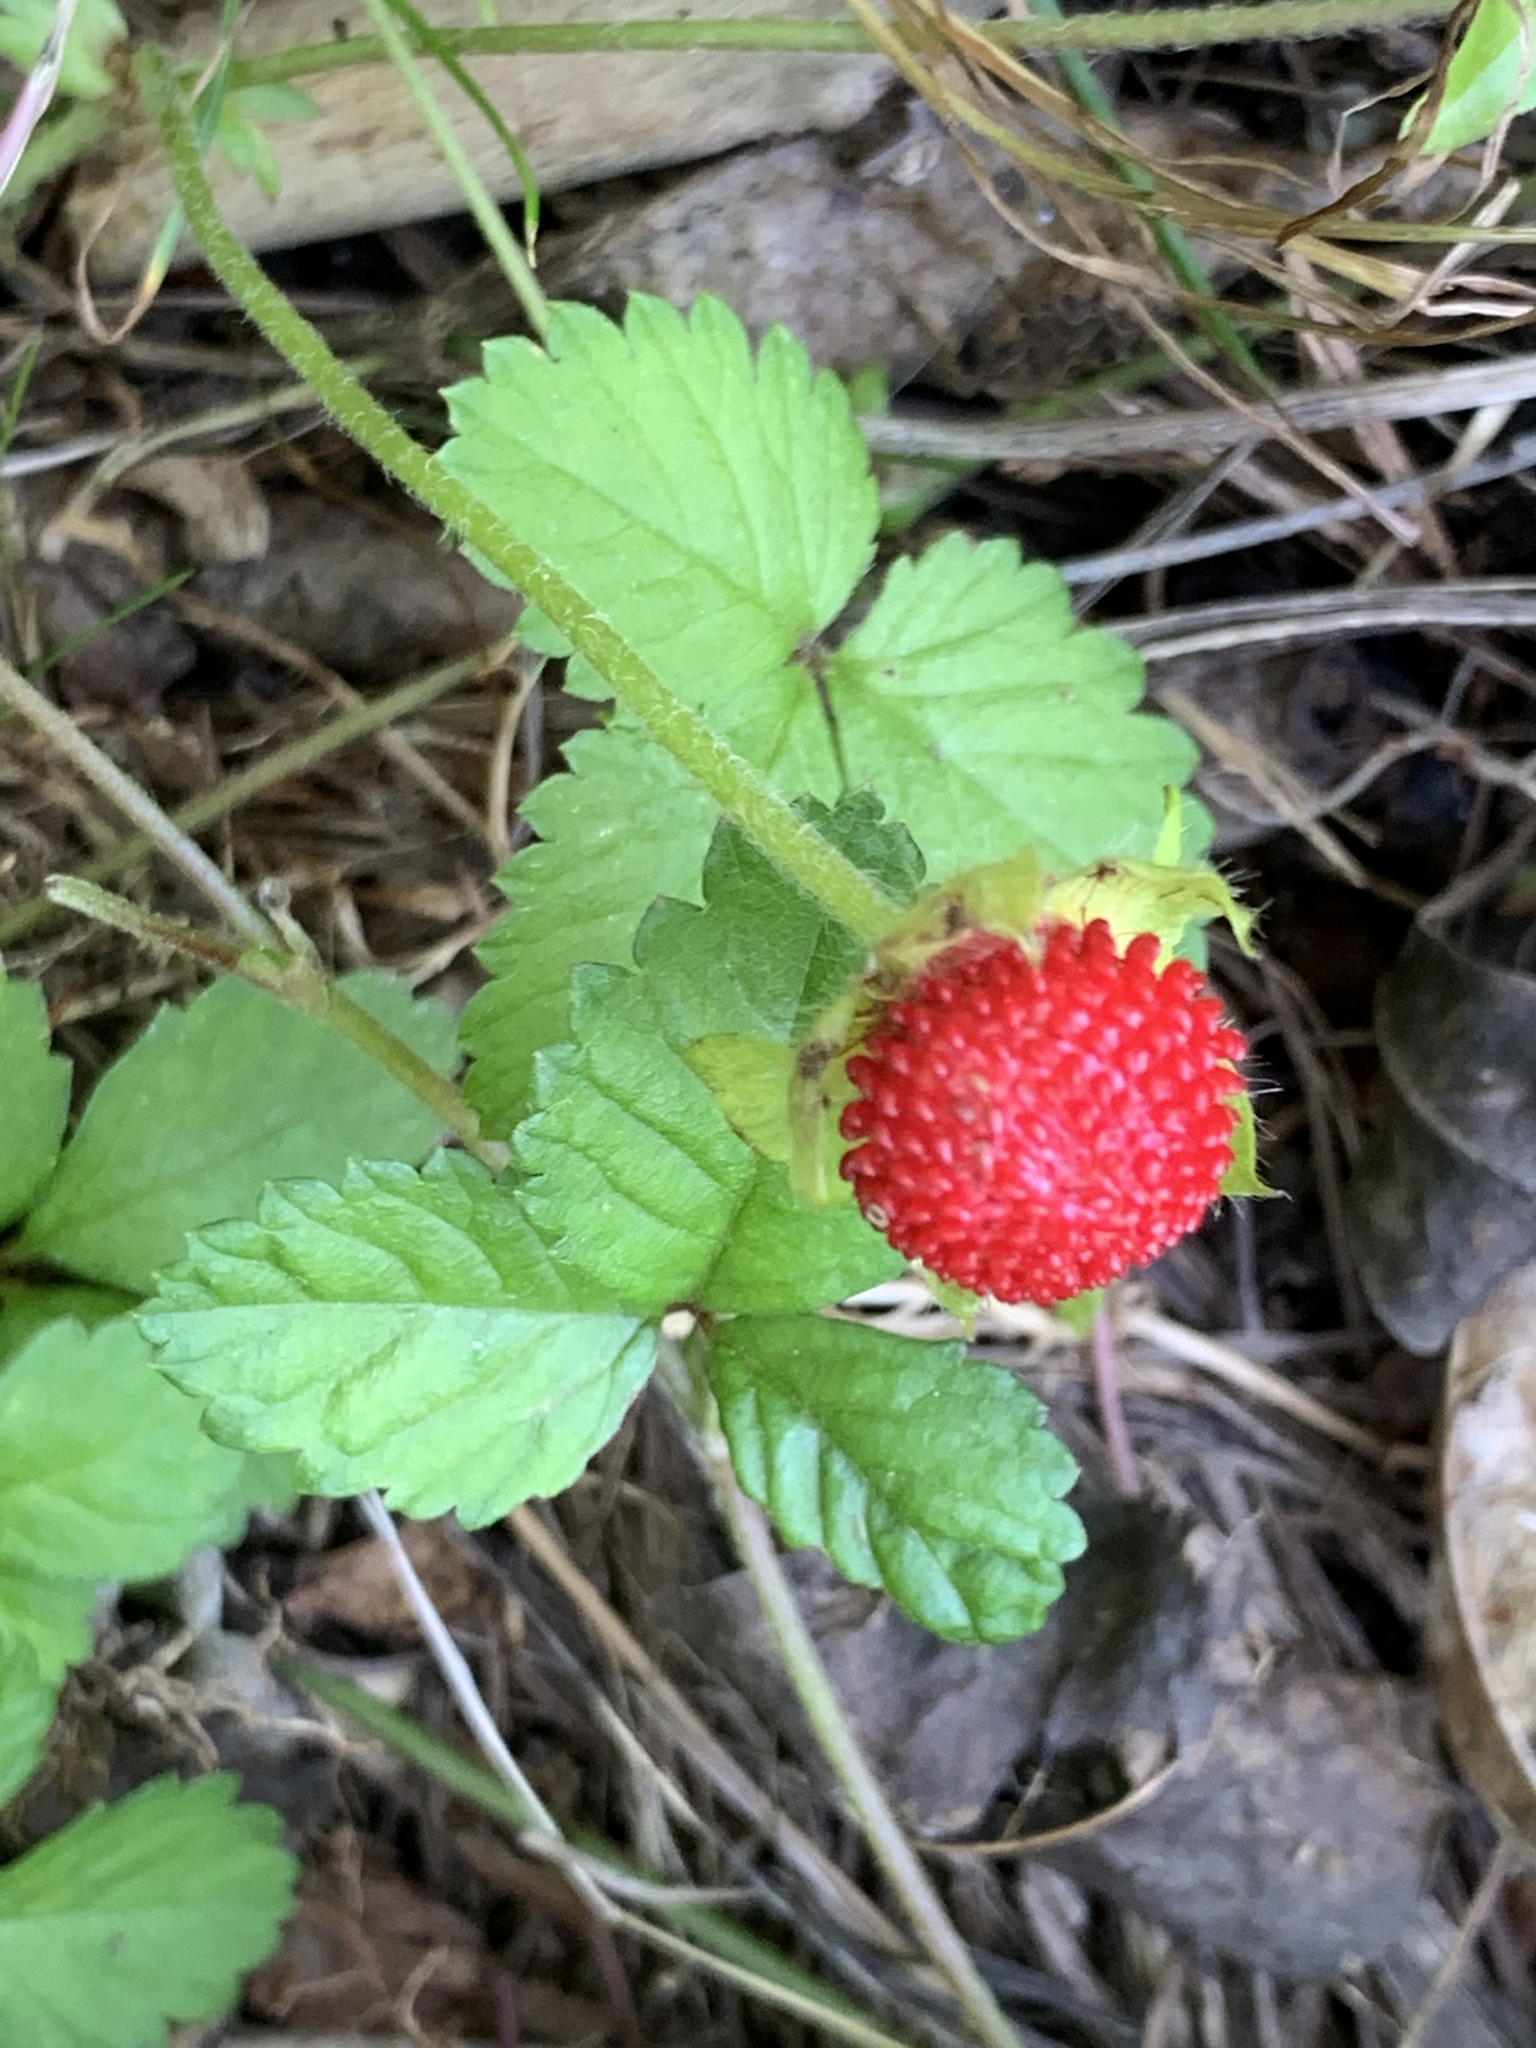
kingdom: Plantae
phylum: Tracheophyta
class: Magnoliopsida
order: Rosales
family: Rosaceae
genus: Potentilla
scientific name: Potentilla indica
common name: Yellow-flowered strawberry
